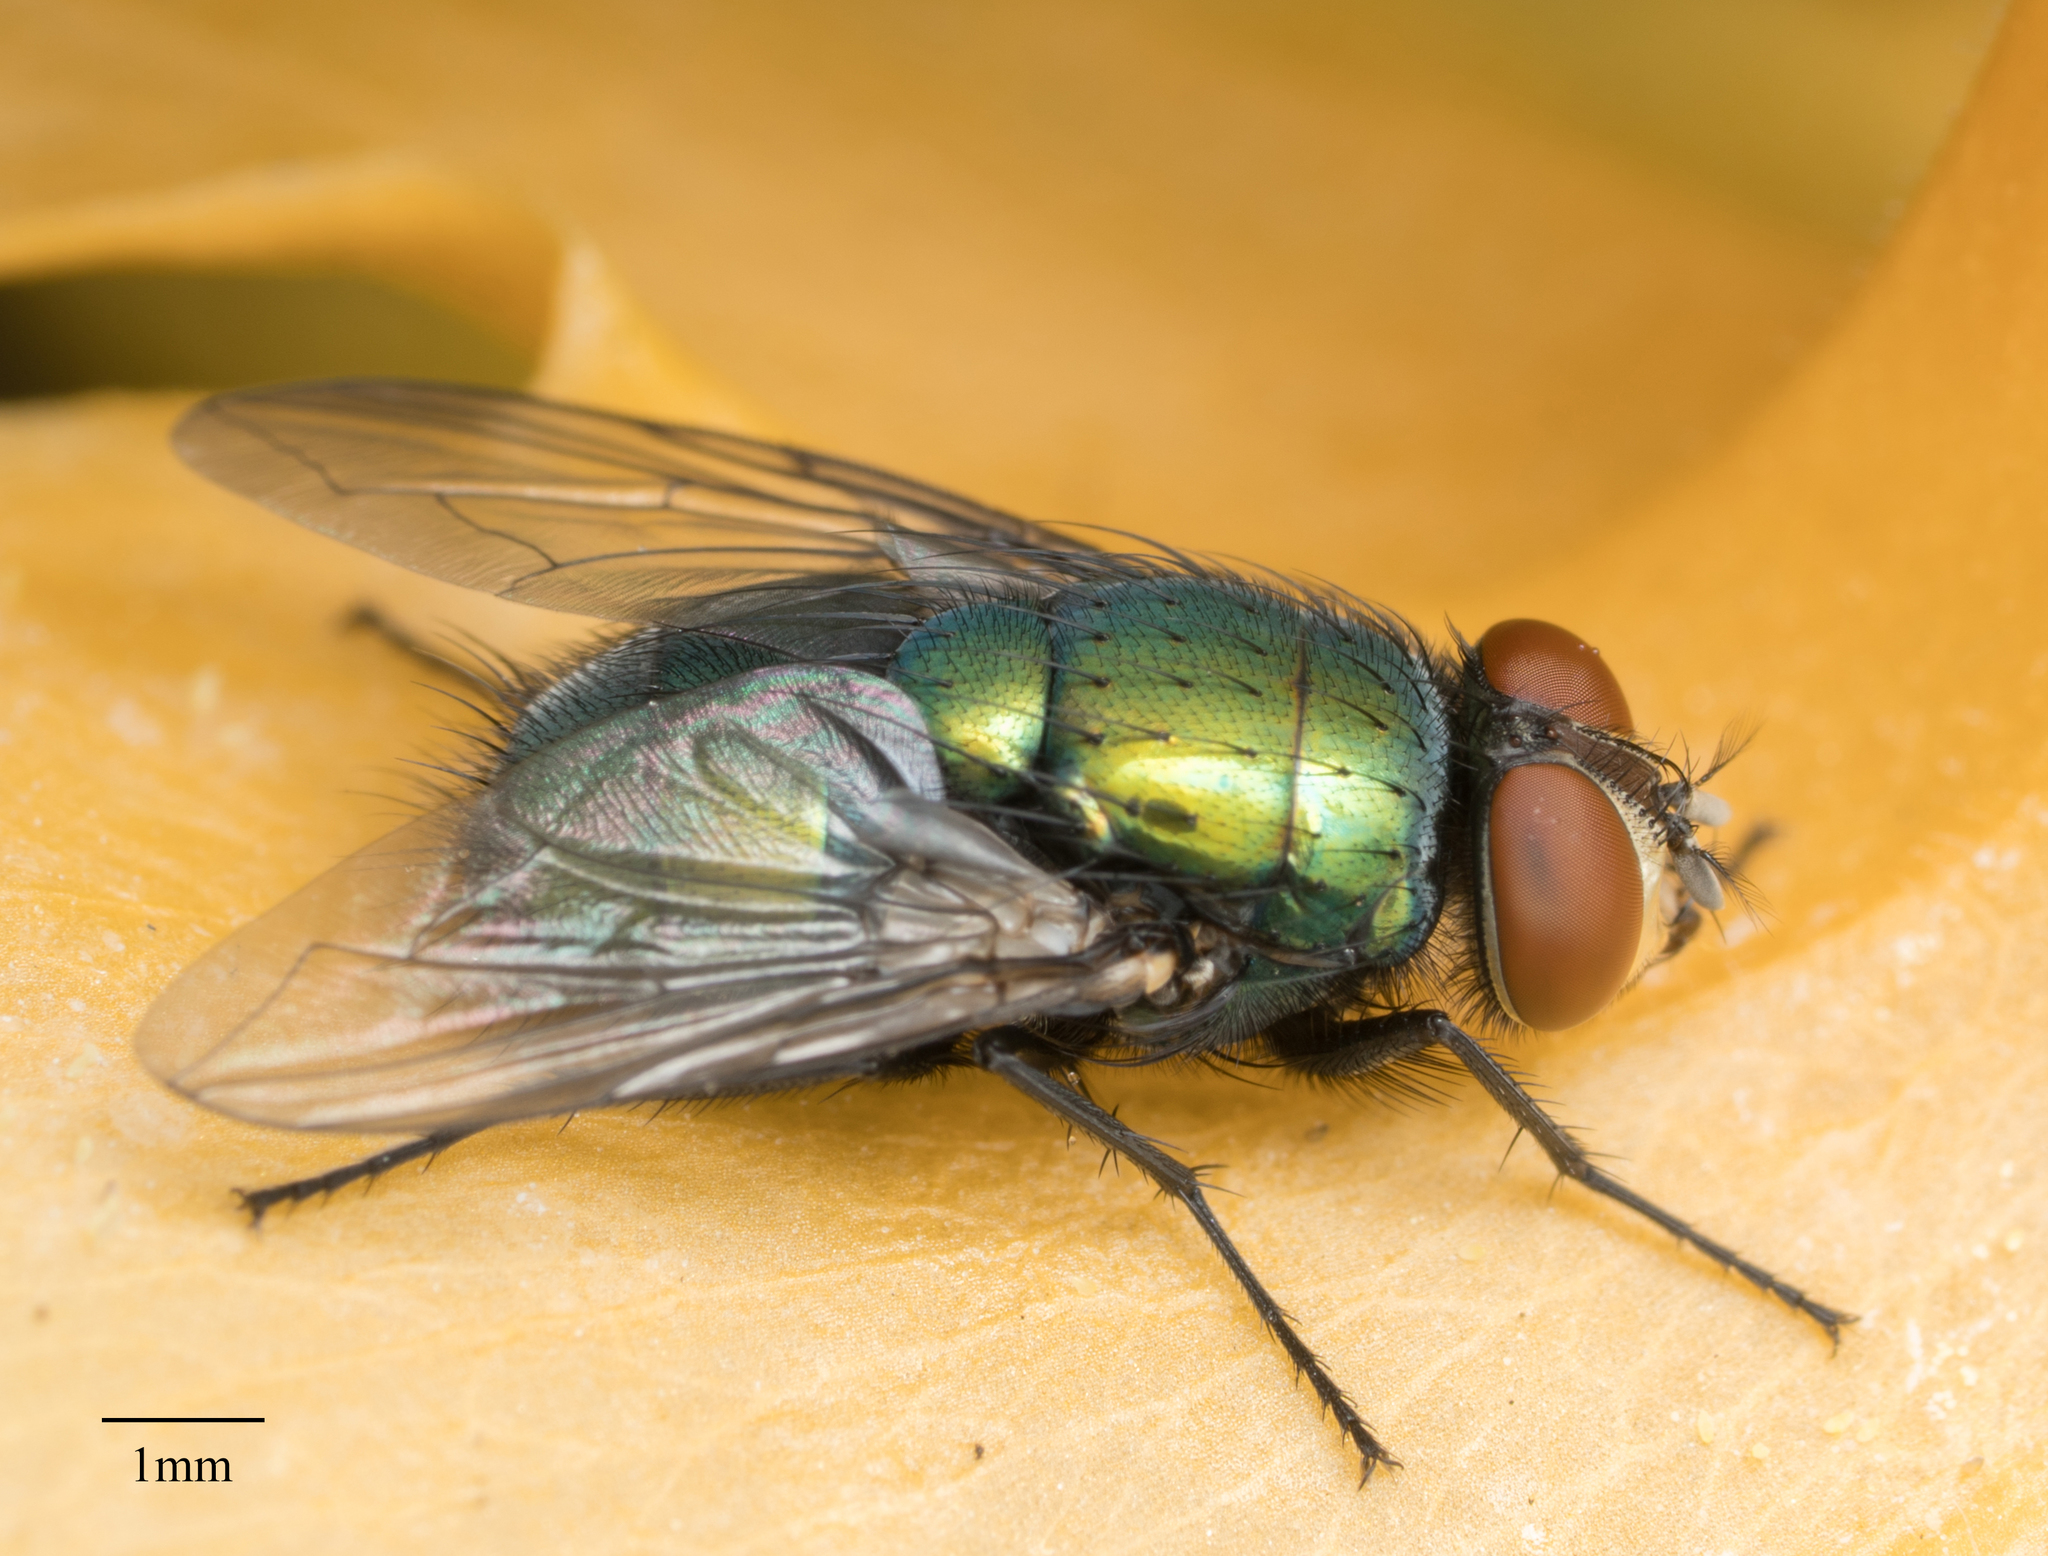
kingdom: Animalia
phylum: Arthropoda
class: Insecta
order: Diptera
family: Calliphoridae
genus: Lucilia
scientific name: Lucilia sericata
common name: Blow fly
